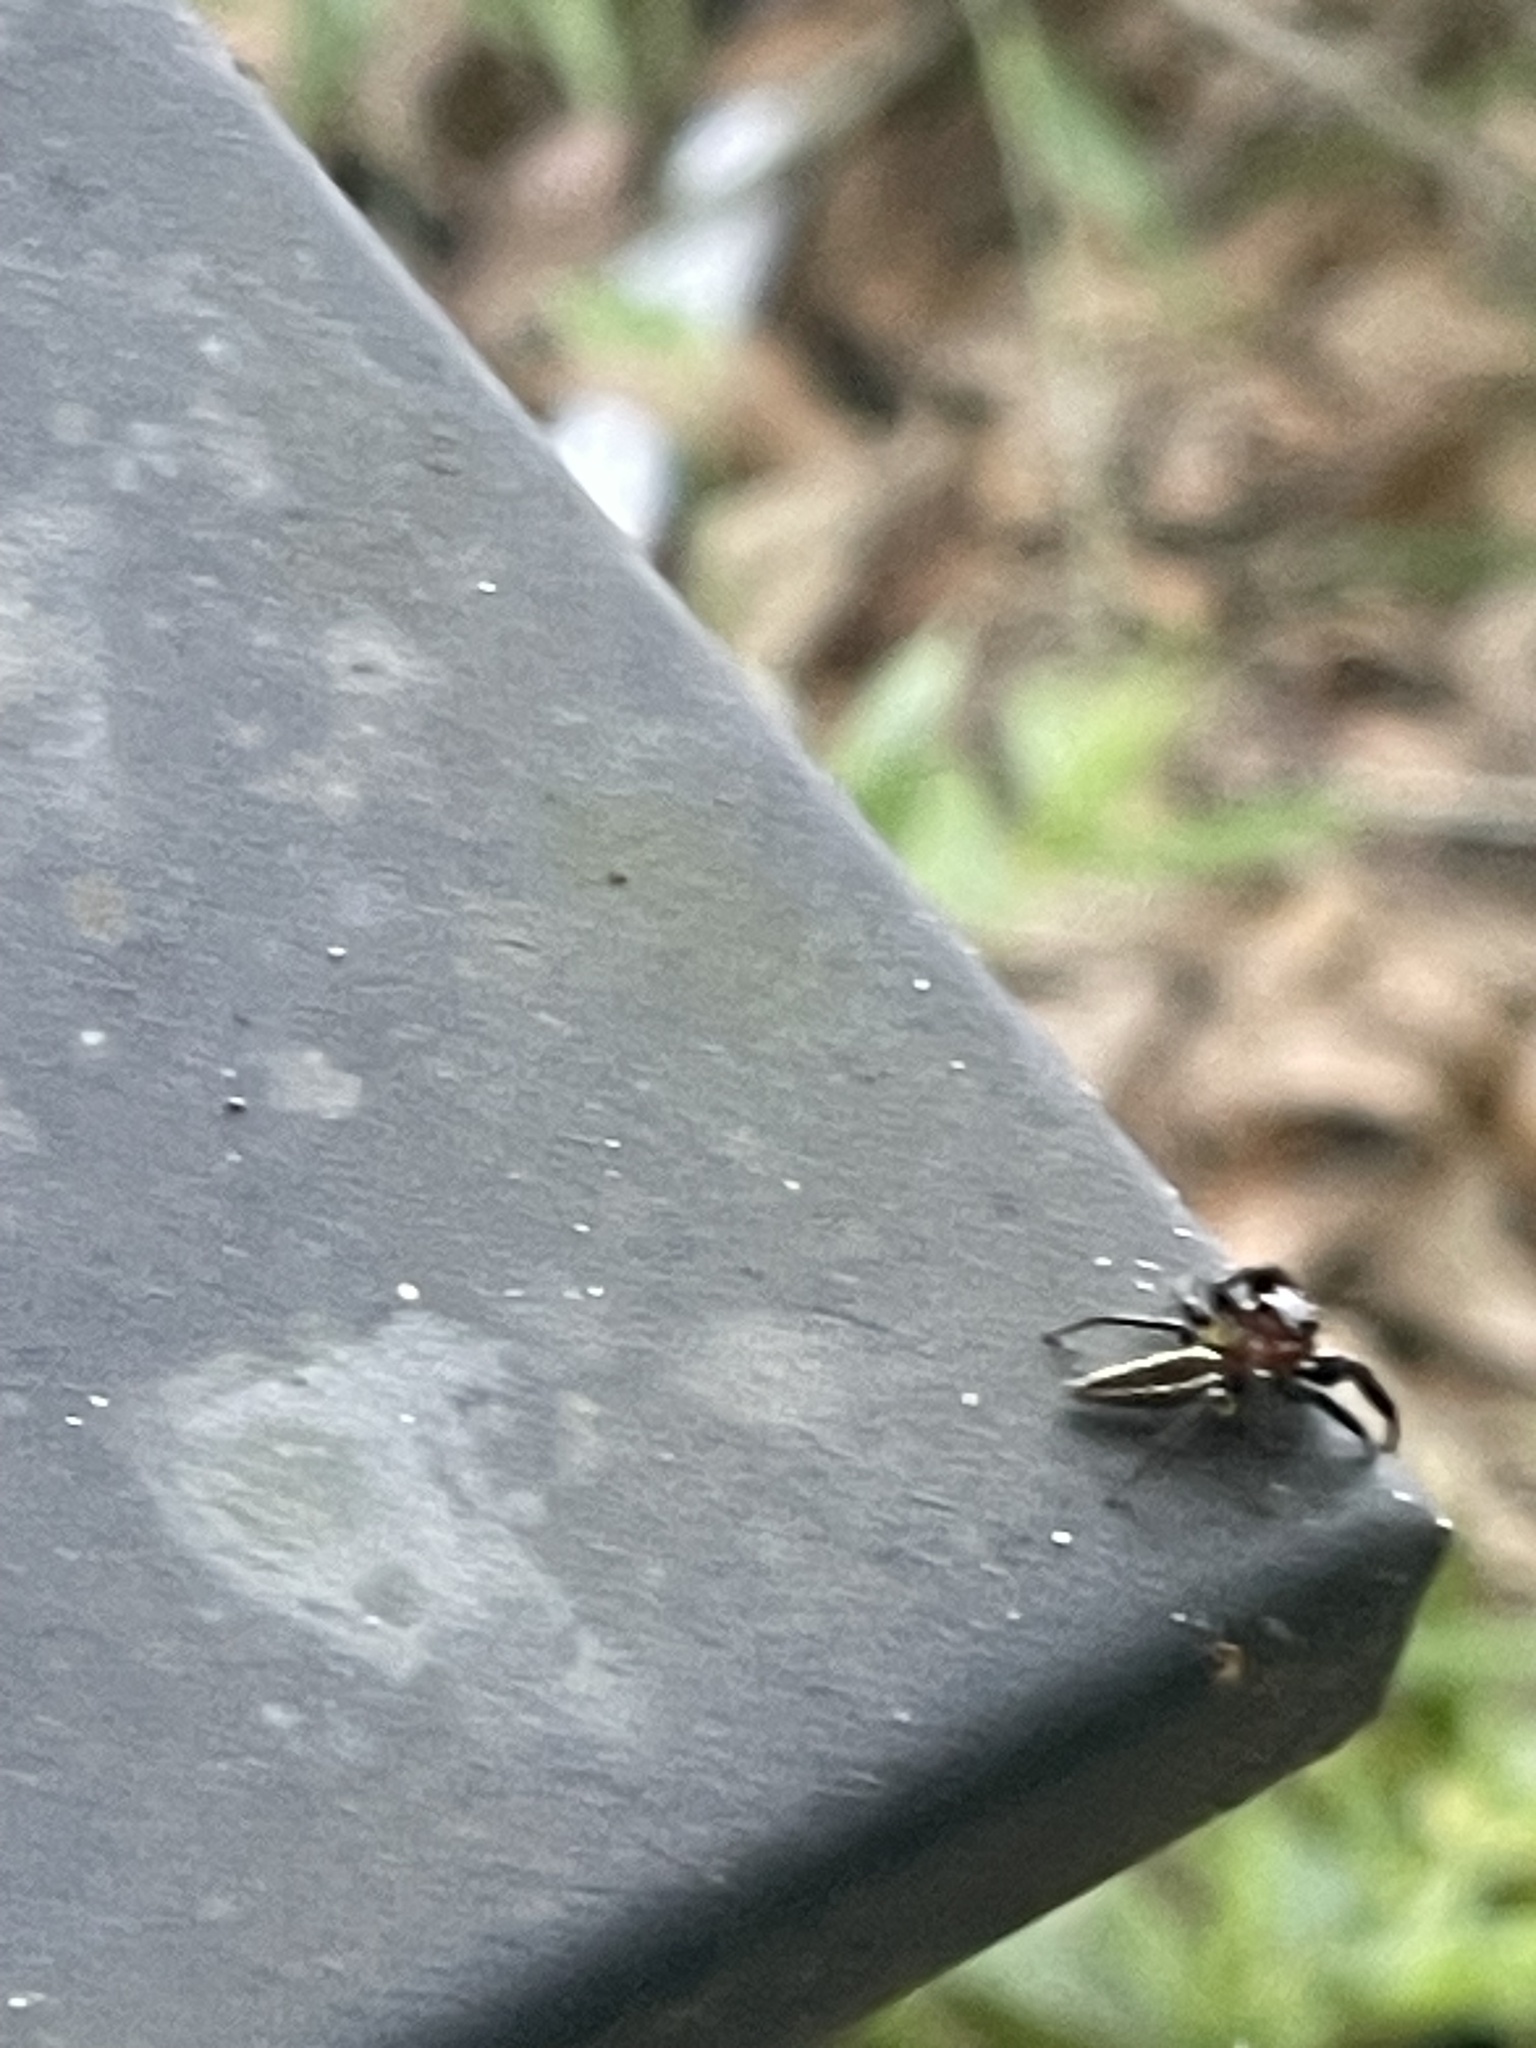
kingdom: Animalia
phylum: Arthropoda
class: Arachnida
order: Araneae
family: Salticidae
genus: Colonus
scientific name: Colonus sylvanus
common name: Jumping spiders
